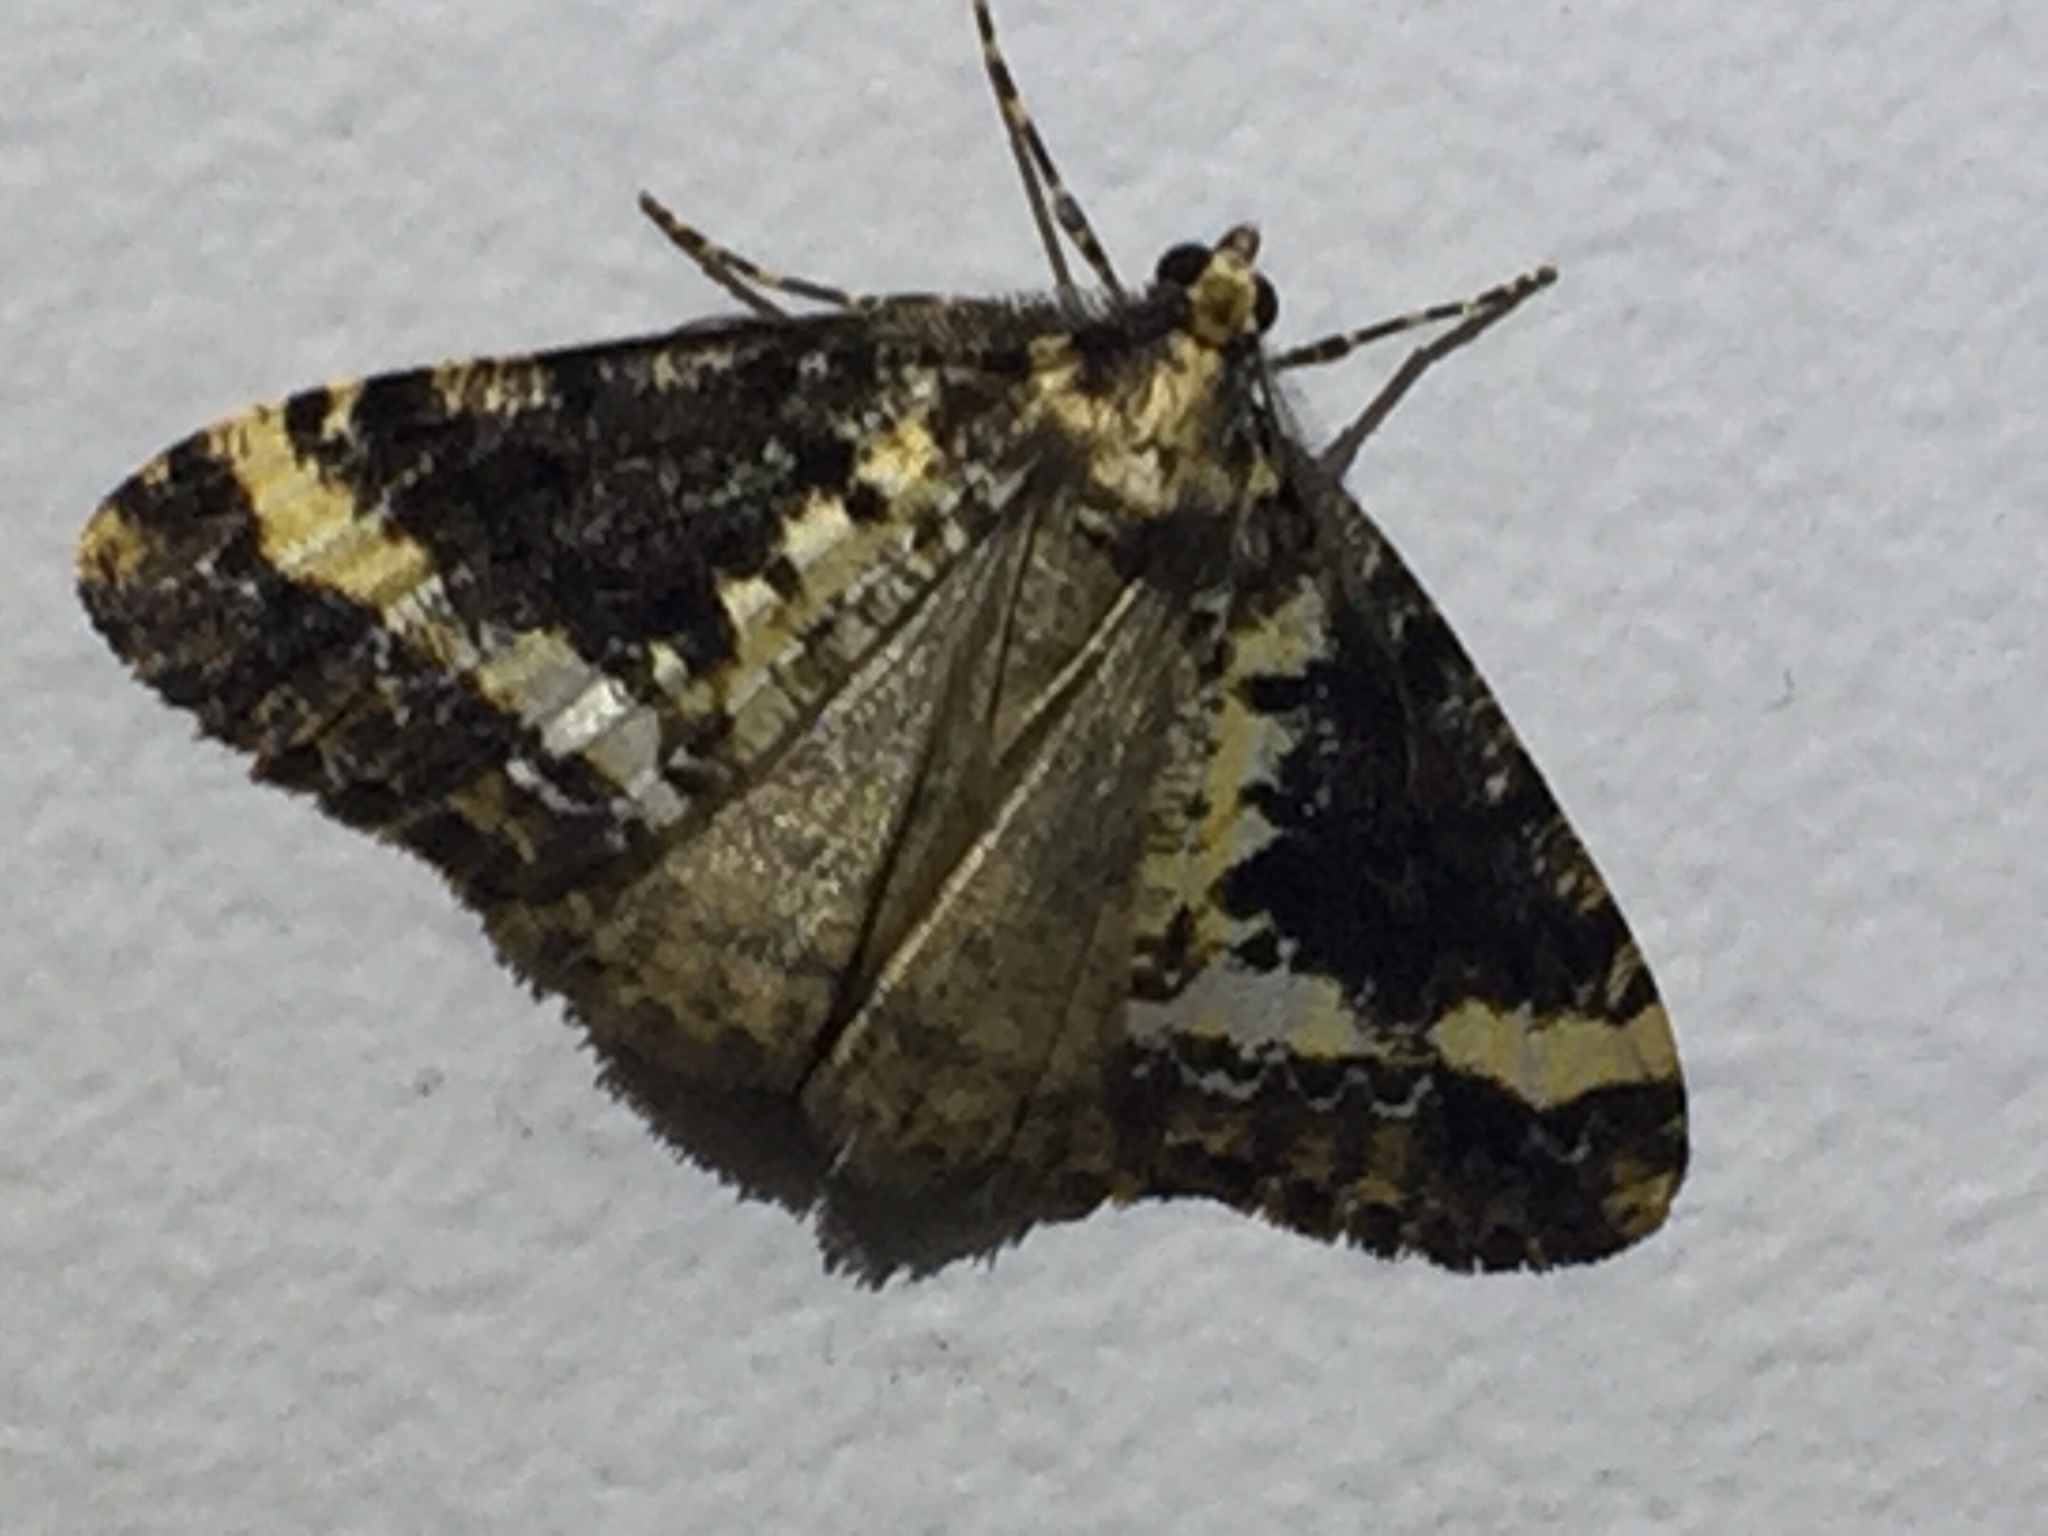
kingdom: Animalia
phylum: Arthropoda
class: Insecta
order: Lepidoptera
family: Geometridae
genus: Pseudocoremia
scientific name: Pseudocoremia leucelaea
